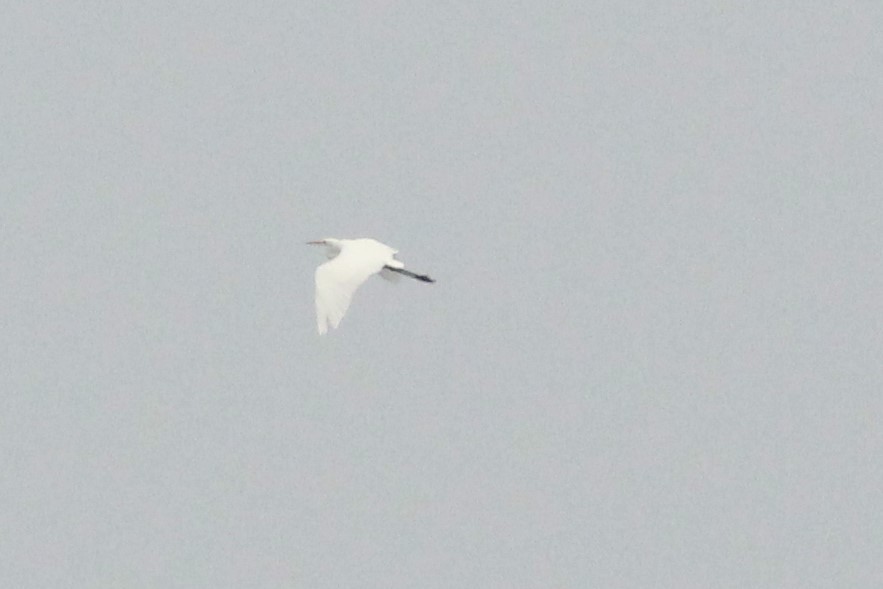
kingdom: Animalia
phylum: Chordata
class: Aves
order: Pelecaniformes
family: Ardeidae
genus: Ardea
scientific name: Ardea alba
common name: Great egret
